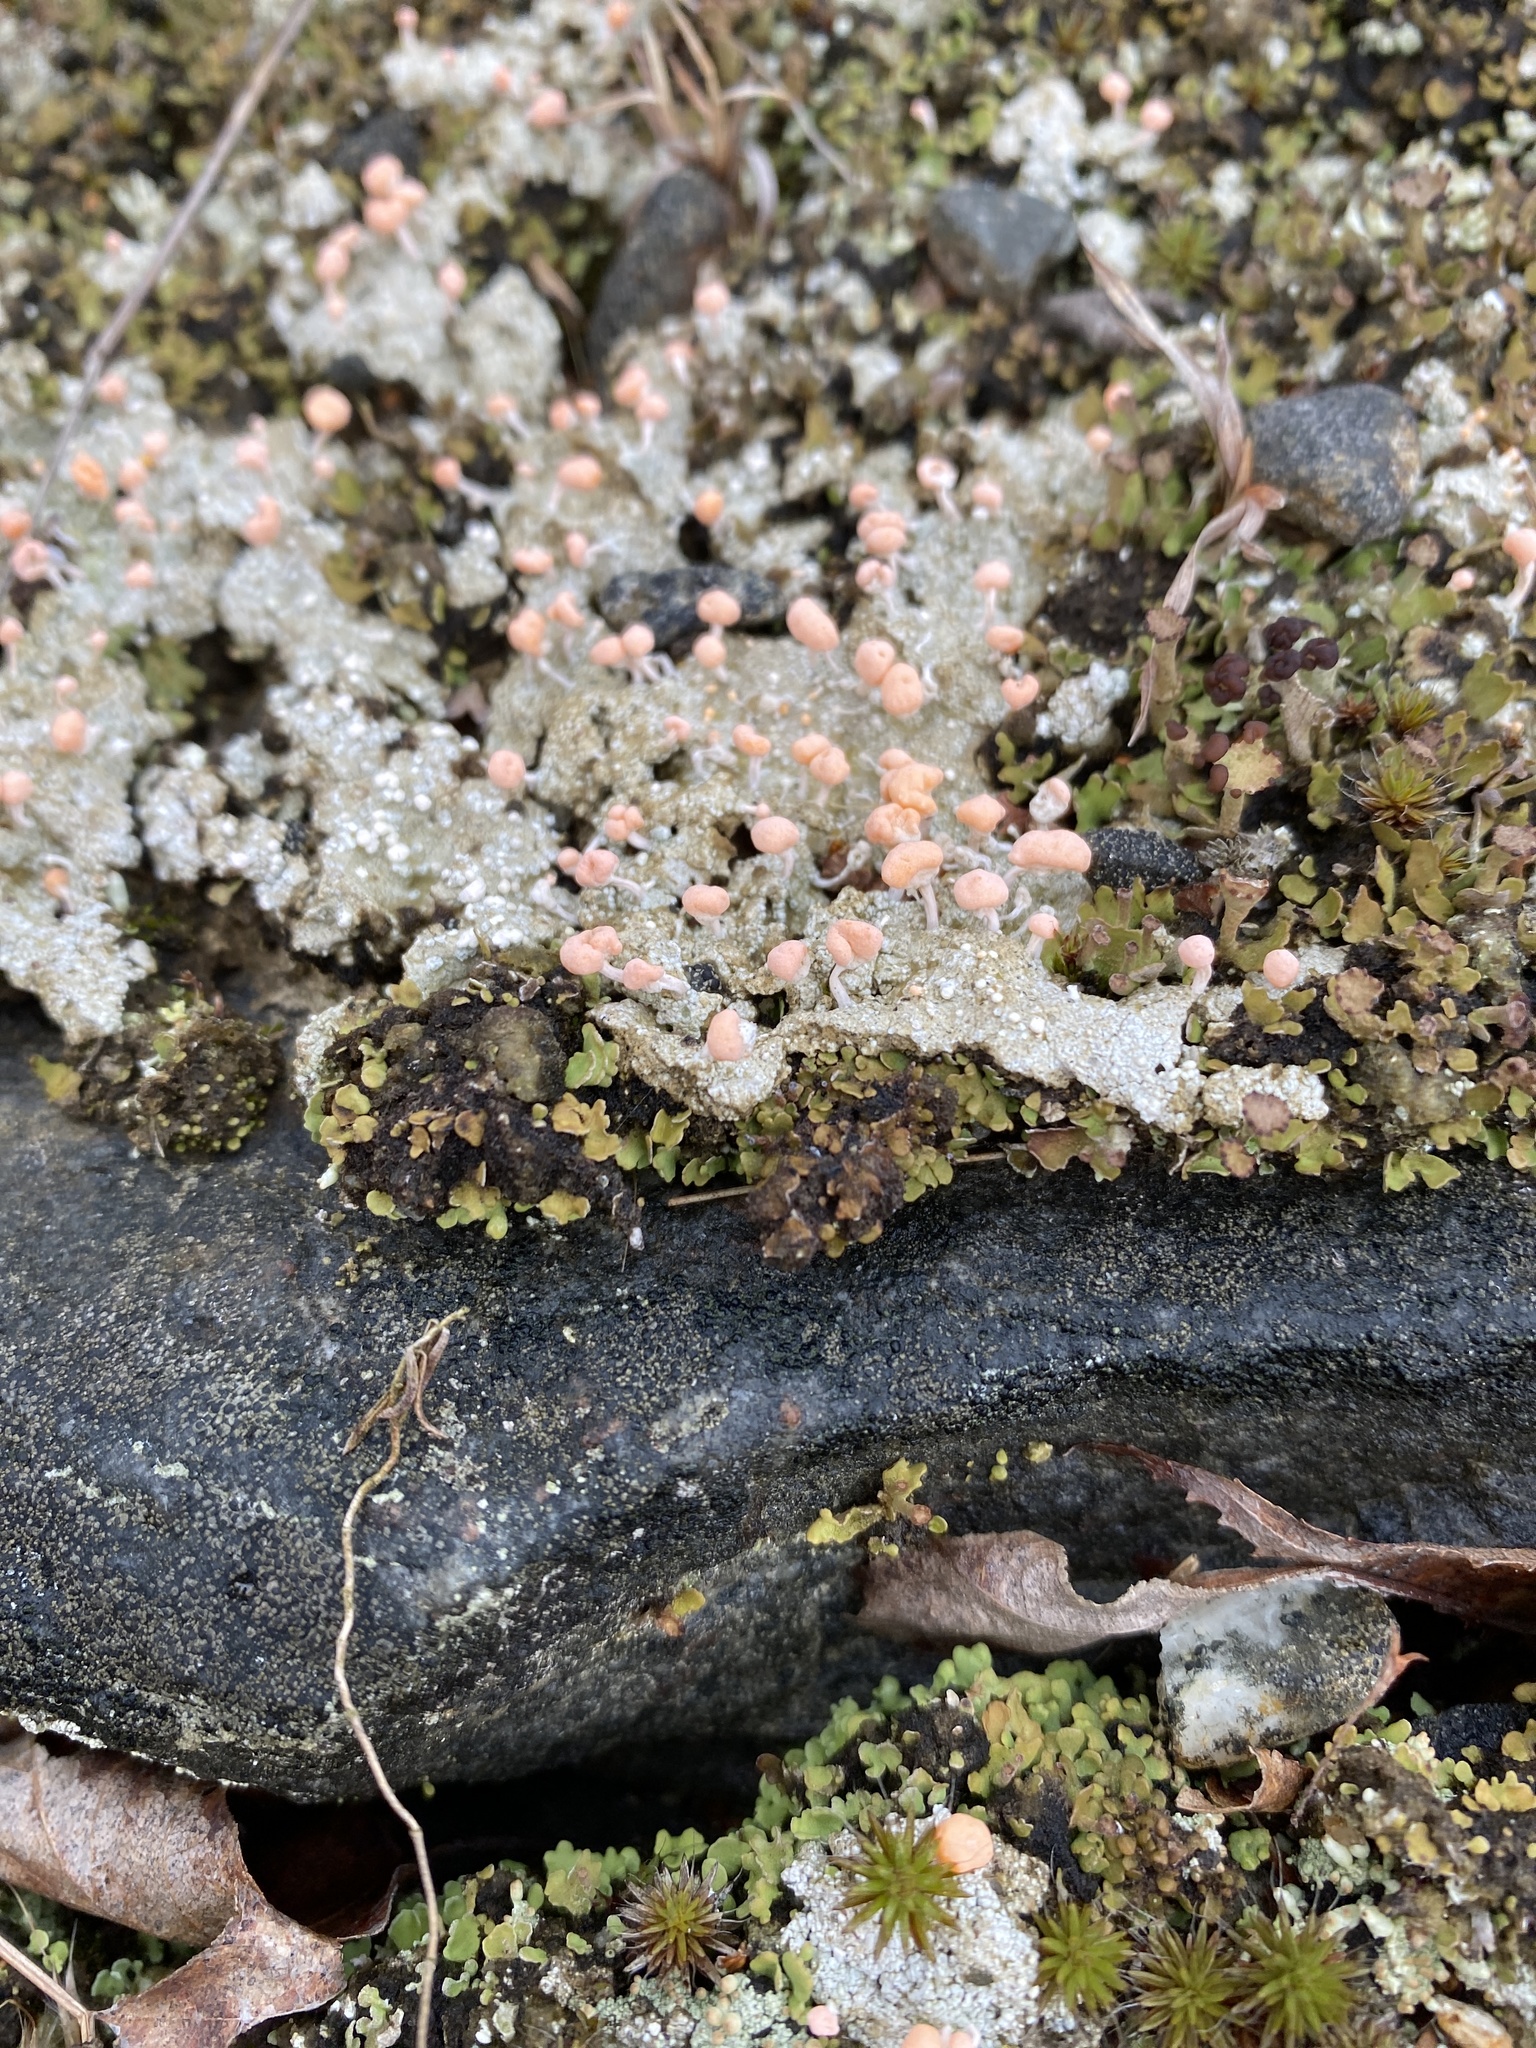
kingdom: Fungi
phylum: Ascomycota
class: Lecanoromycetes
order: Pertusariales
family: Icmadophilaceae
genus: Dibaeis
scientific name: Dibaeis baeomyces
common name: Pink earth lichen
